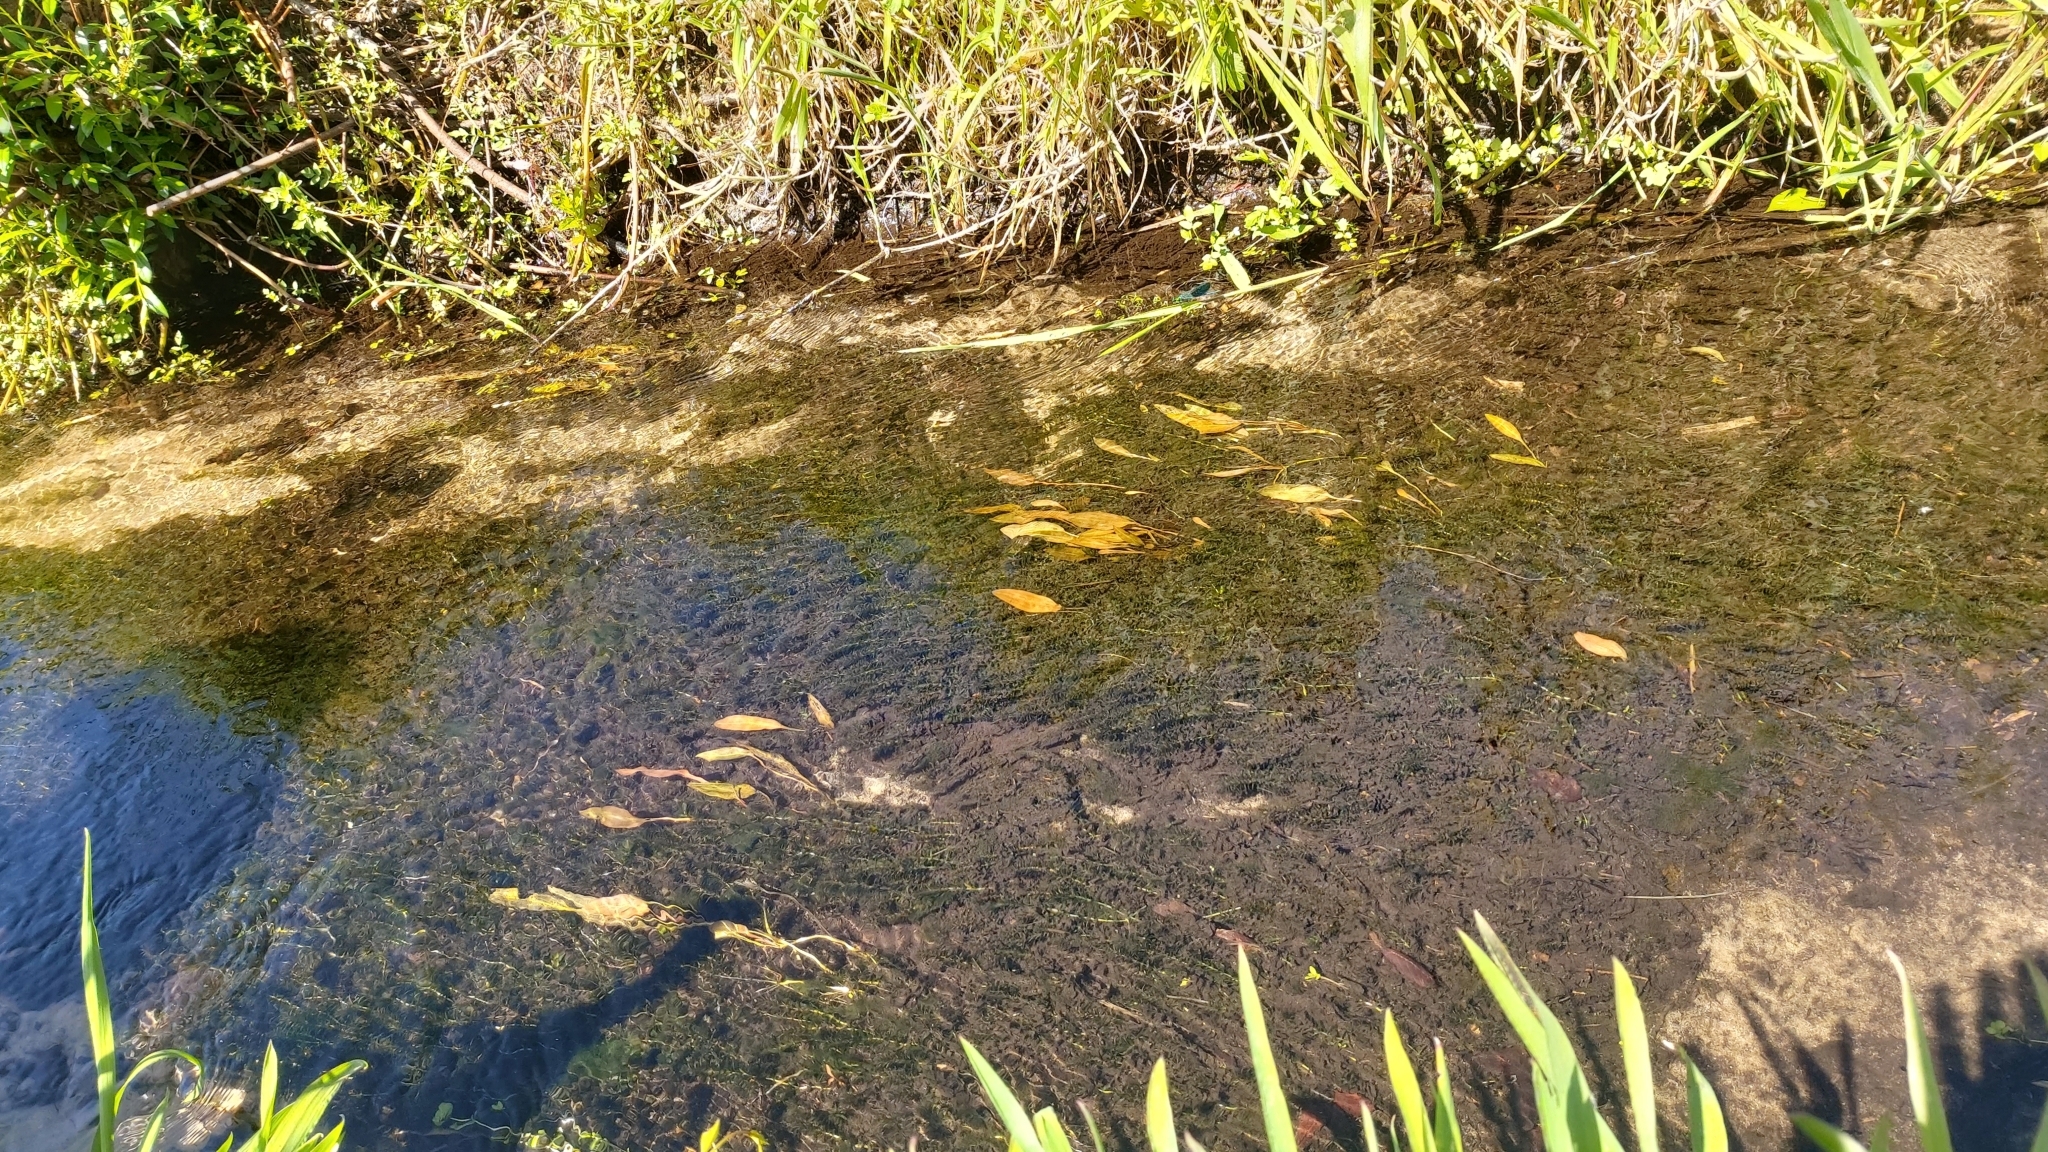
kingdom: Plantae
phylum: Tracheophyta
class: Liliopsida
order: Alismatales
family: Hydrocharitaceae
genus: Elodea
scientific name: Elodea canadensis
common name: Canadian waterweed
